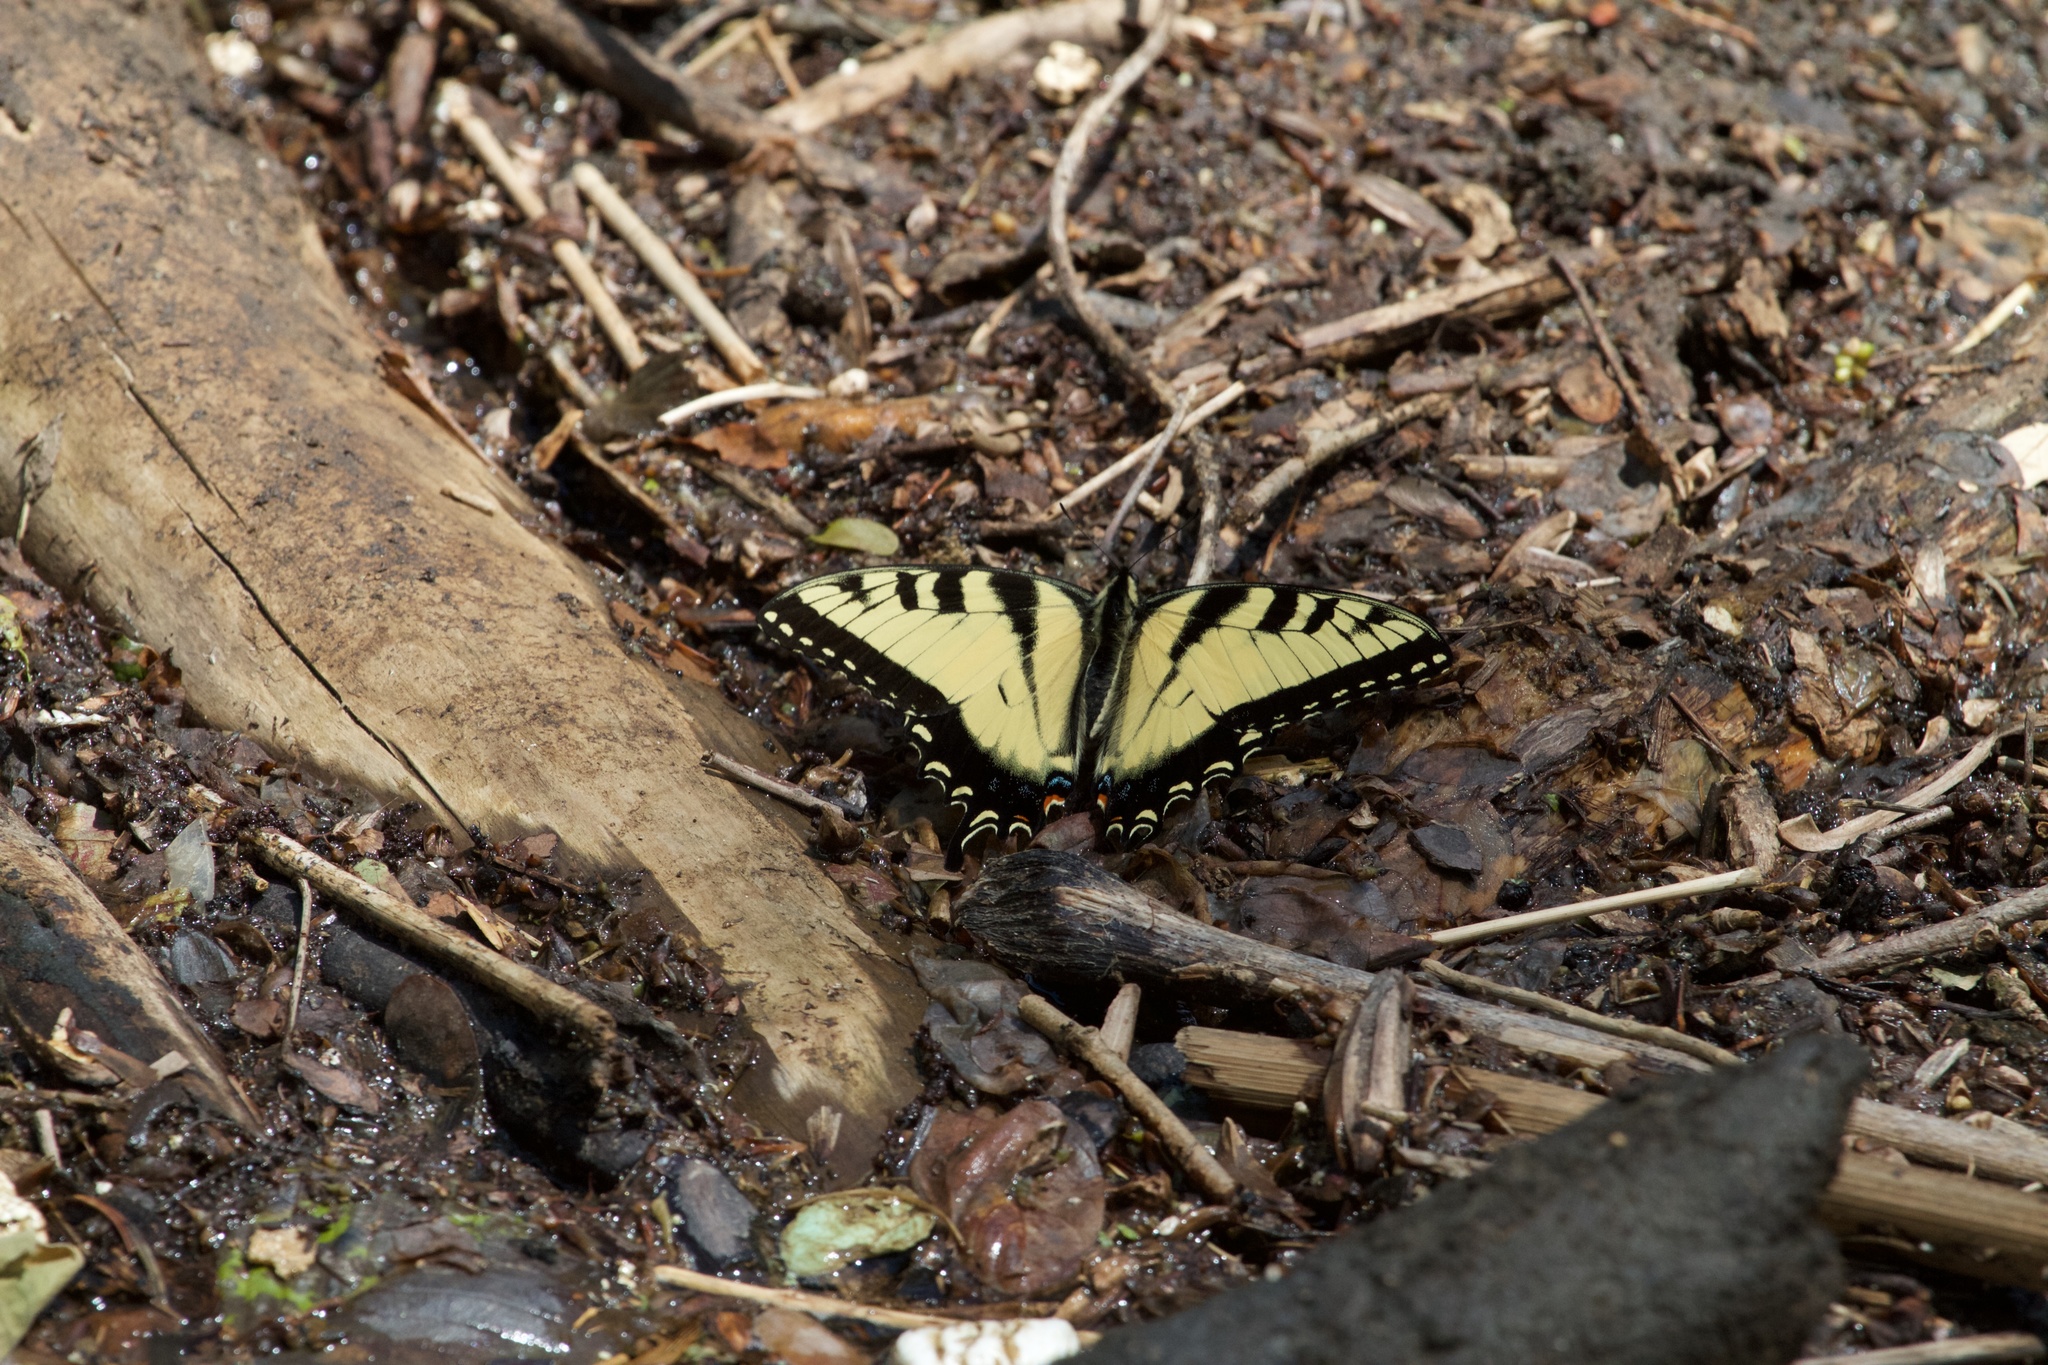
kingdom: Animalia
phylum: Arthropoda
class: Insecta
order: Lepidoptera
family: Papilionidae
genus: Papilio
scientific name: Papilio glaucus
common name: Tiger swallowtail
